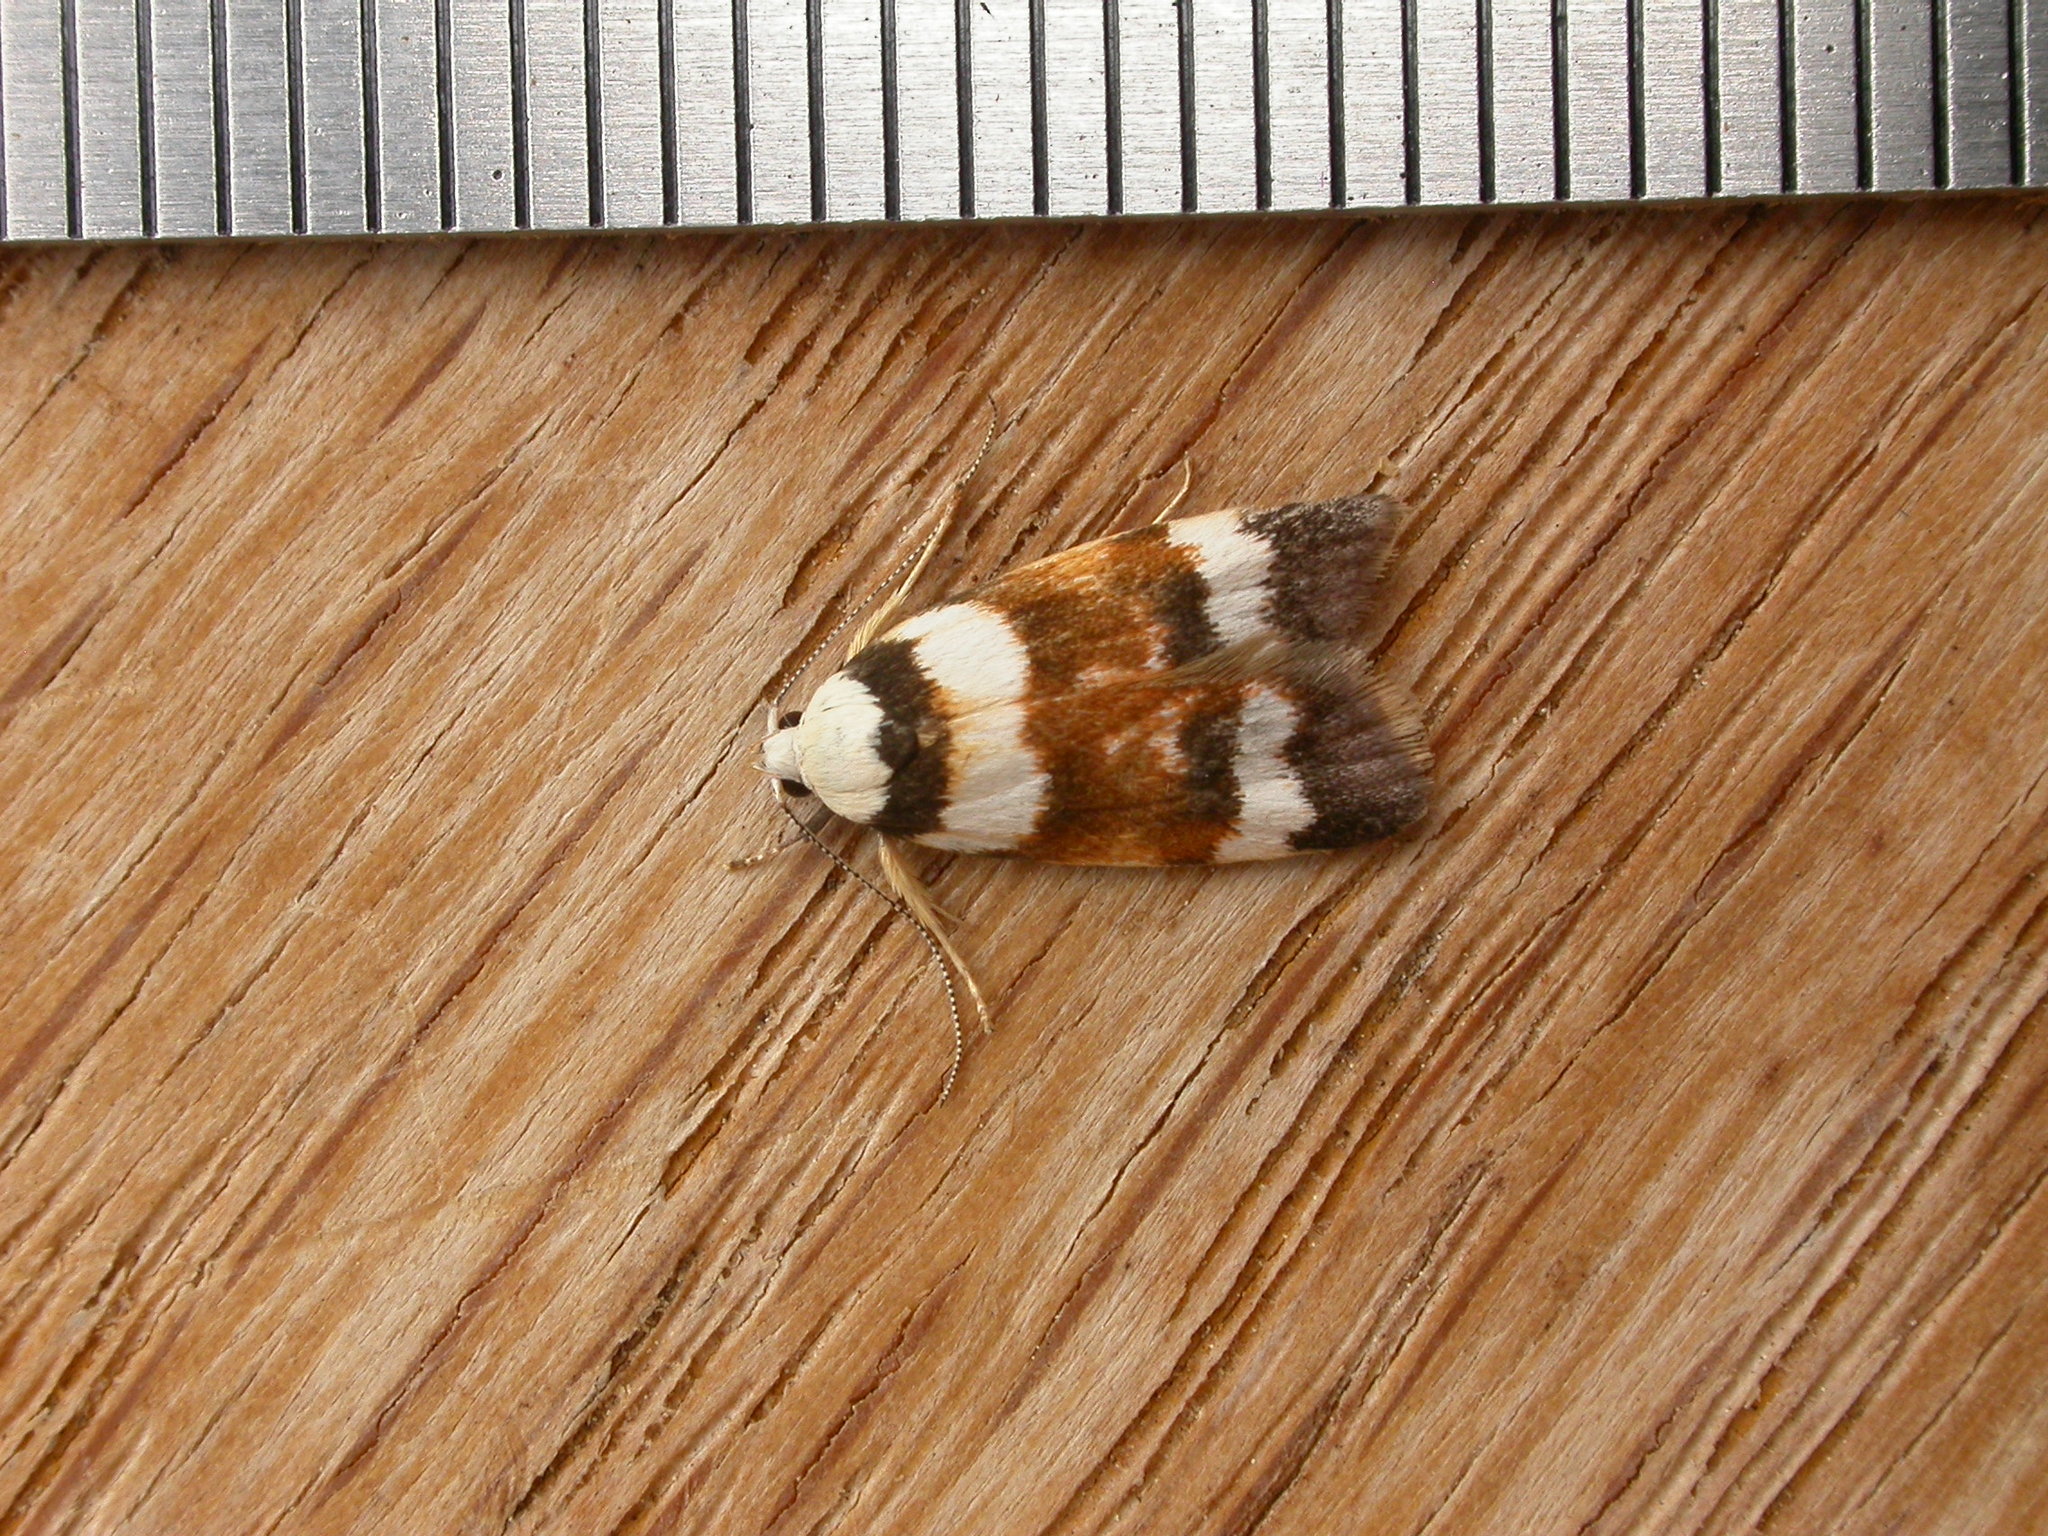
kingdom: Animalia
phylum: Arthropoda
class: Insecta
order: Lepidoptera
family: Oecophoridae
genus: Catacometes
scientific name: Catacometes phanozona
